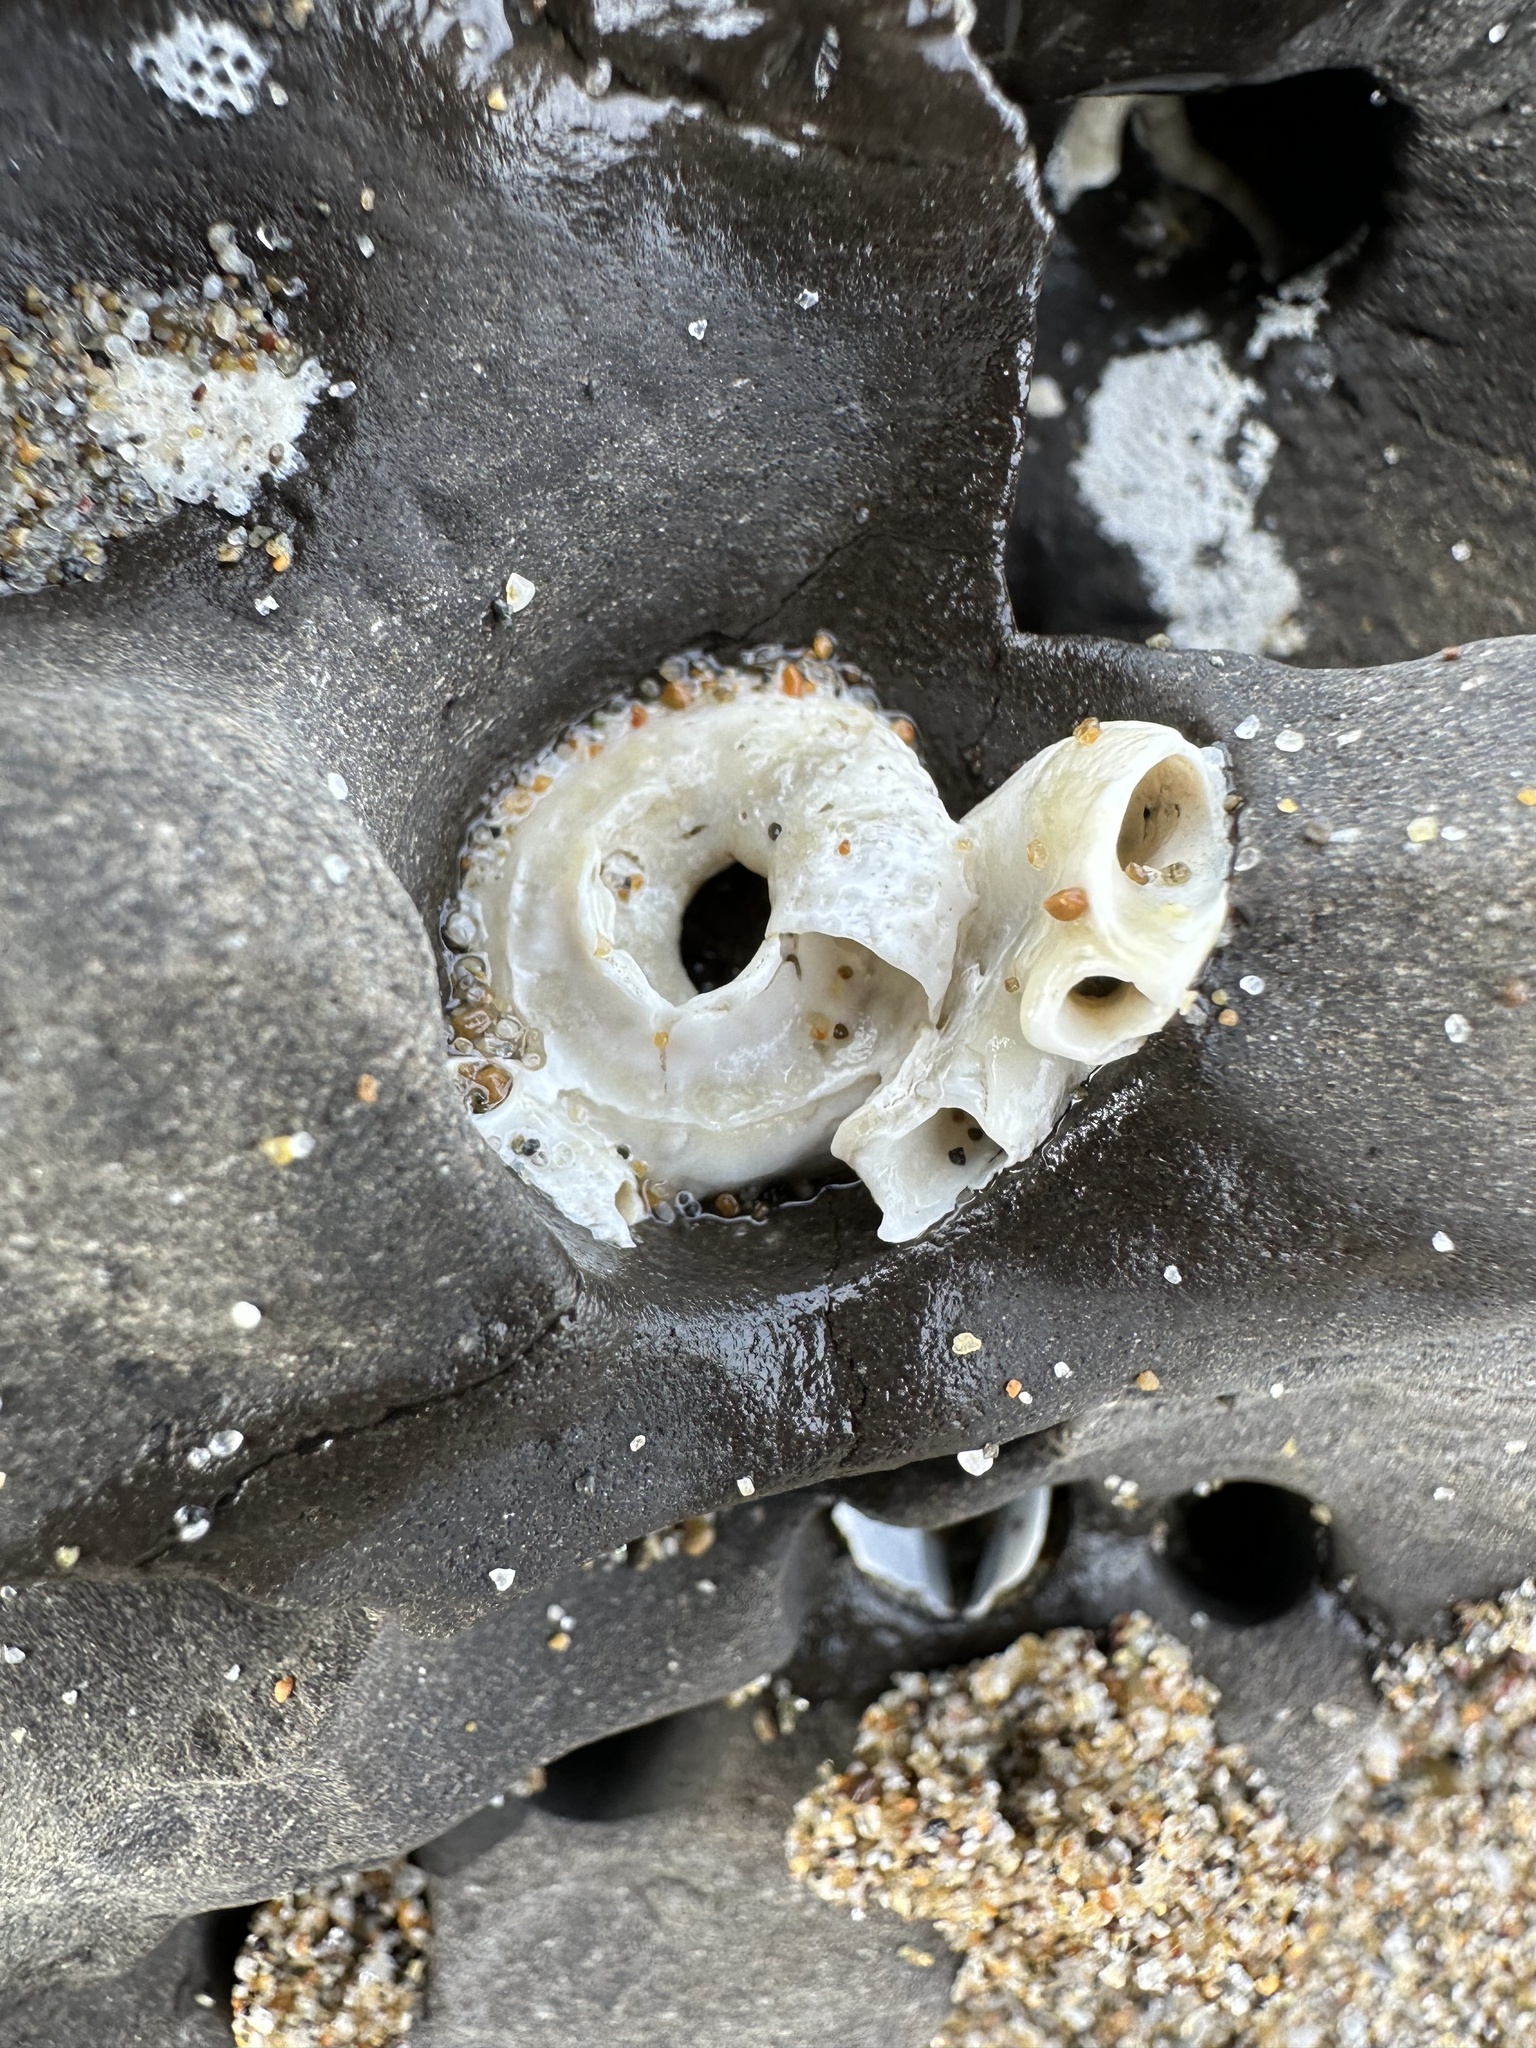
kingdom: Animalia
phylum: Mollusca
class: Gastropoda
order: Littorinimorpha
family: Vermetidae
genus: Thylacodes
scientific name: Thylacodes squamigerus
